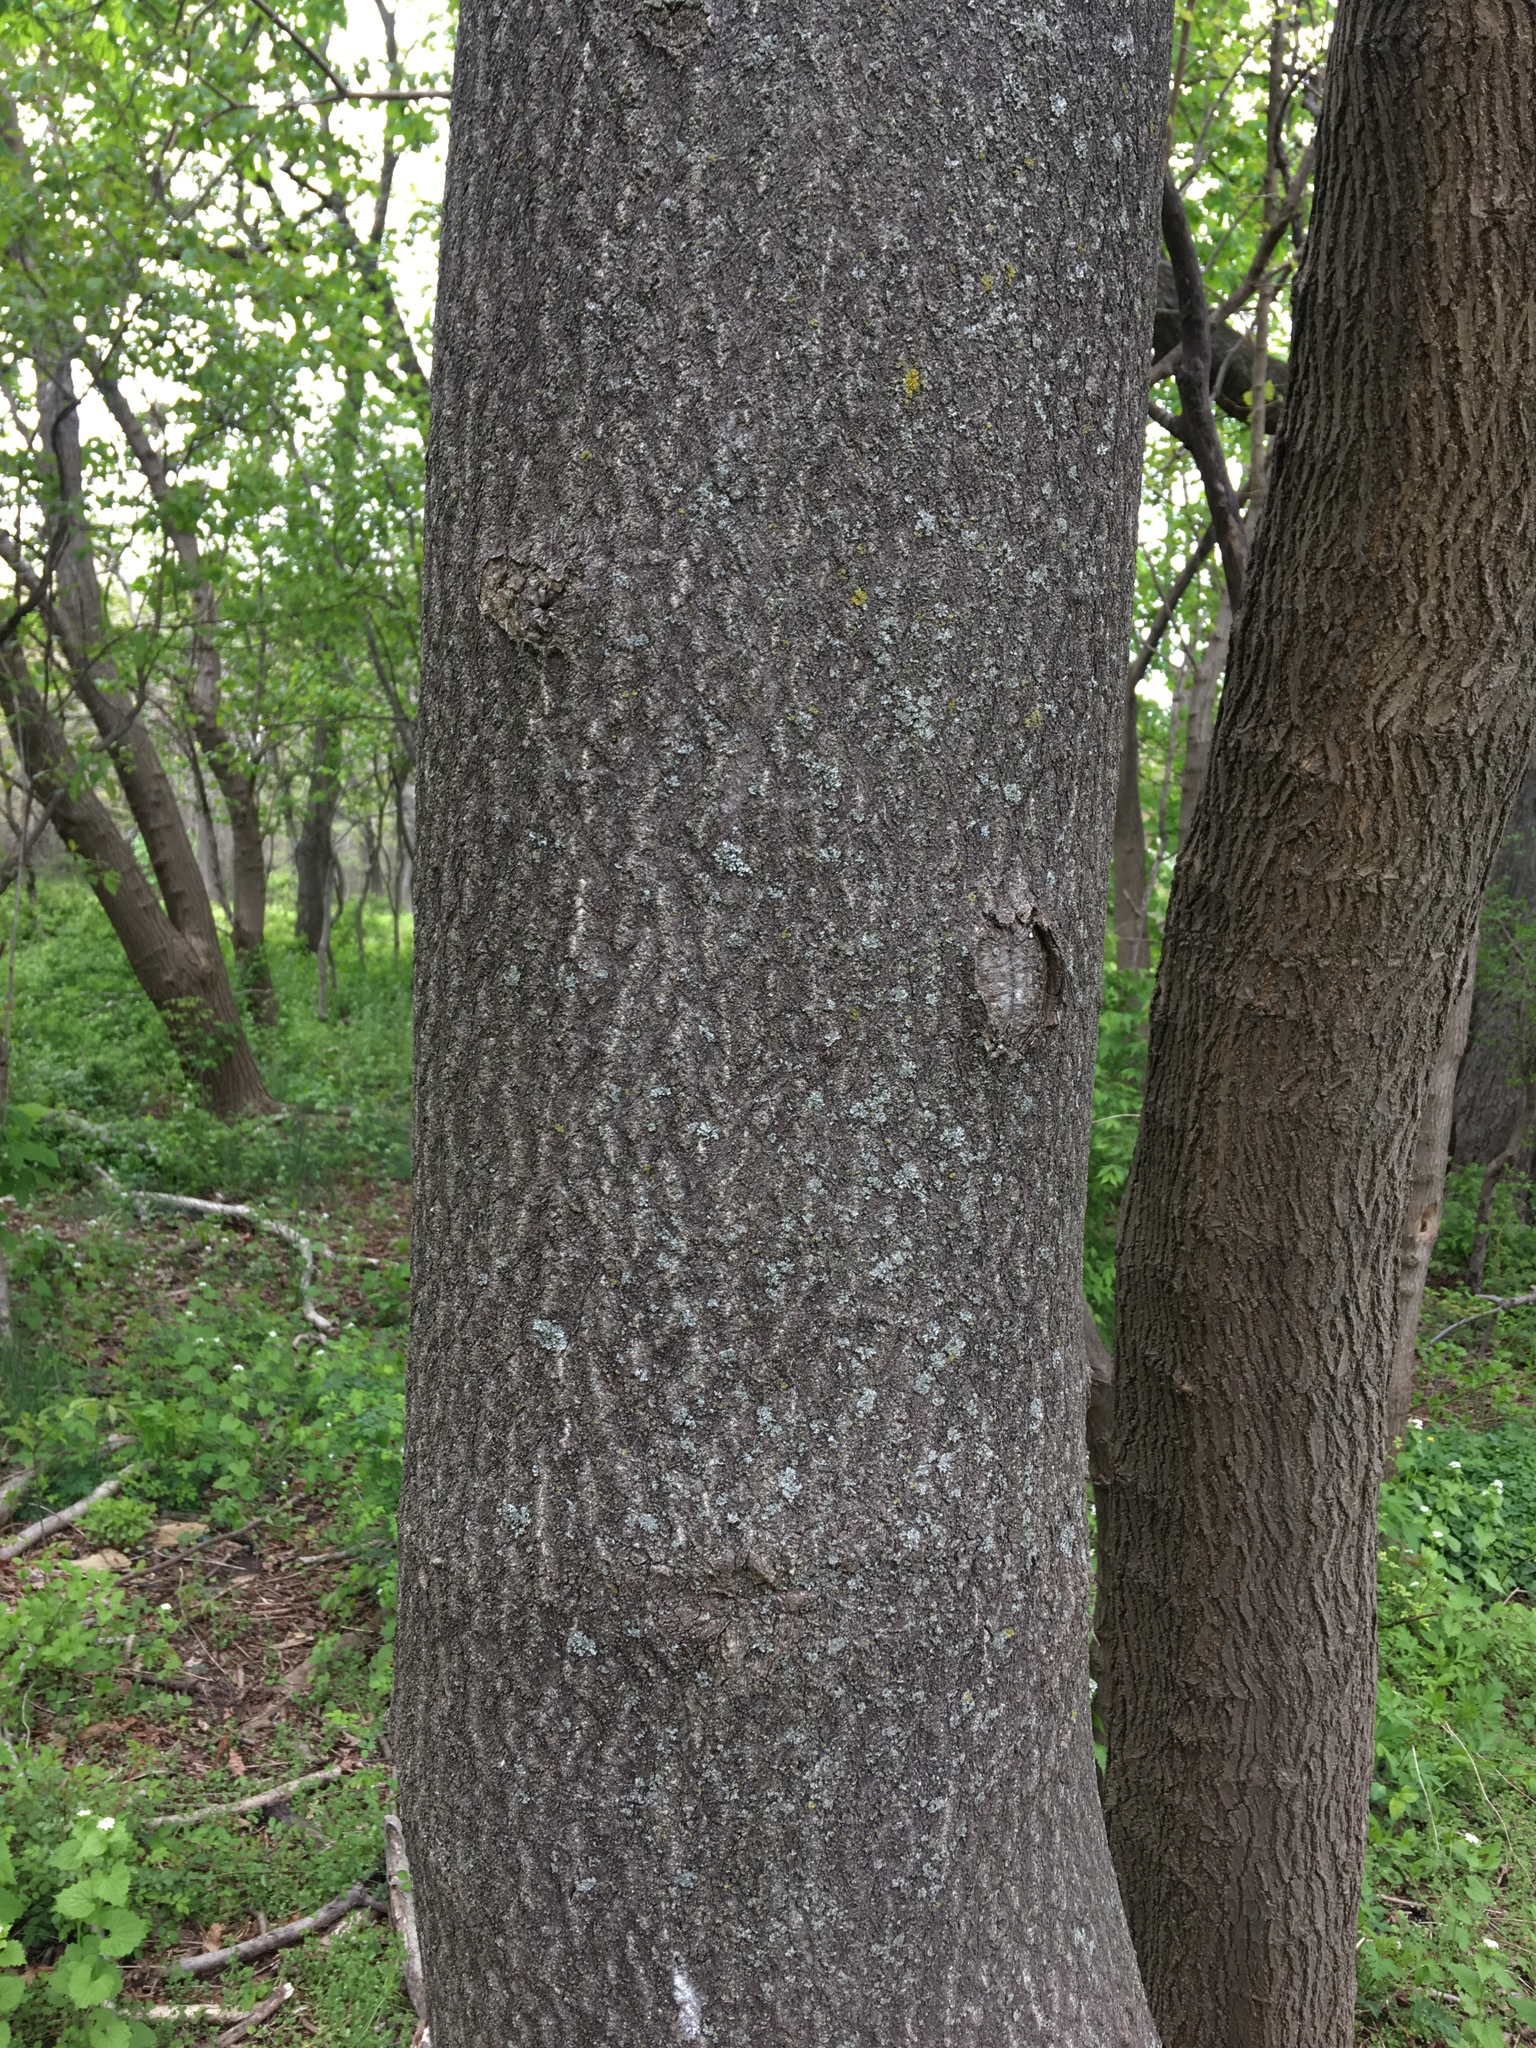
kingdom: Plantae
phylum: Tracheophyta
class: Magnoliopsida
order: Sapindales
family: Simaroubaceae
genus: Ailanthus
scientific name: Ailanthus altissima
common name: Tree-of-heaven
